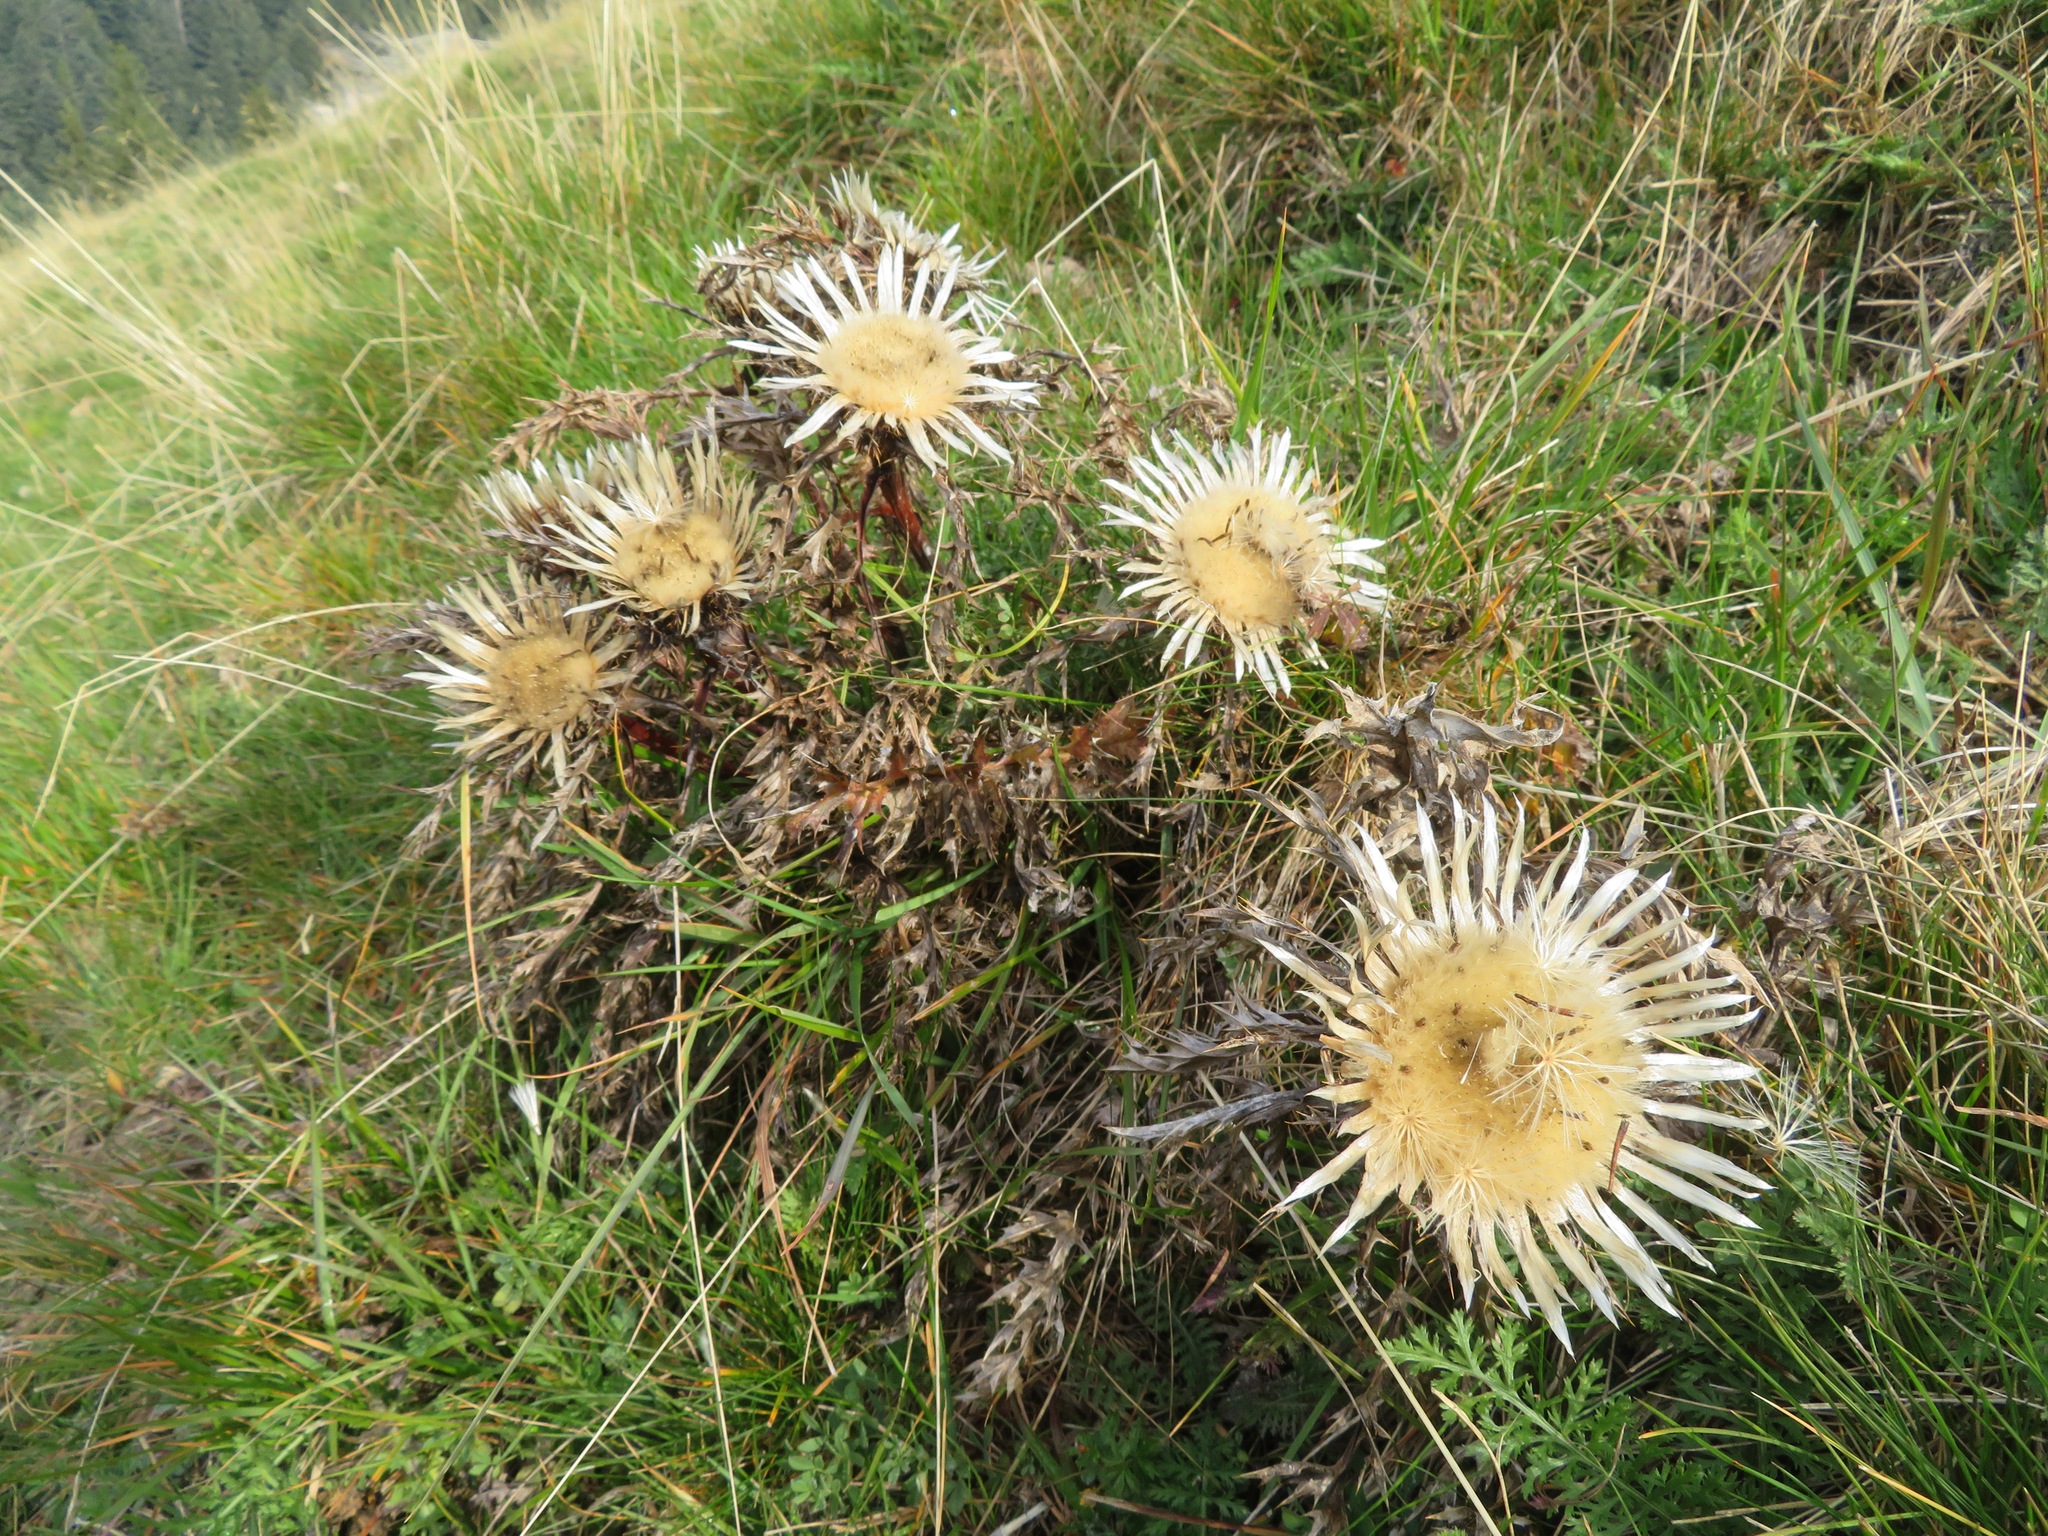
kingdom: Plantae
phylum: Tracheophyta
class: Magnoliopsida
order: Asterales
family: Asteraceae
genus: Carlina
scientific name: Carlina acaulis
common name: Stemless carline thistle
